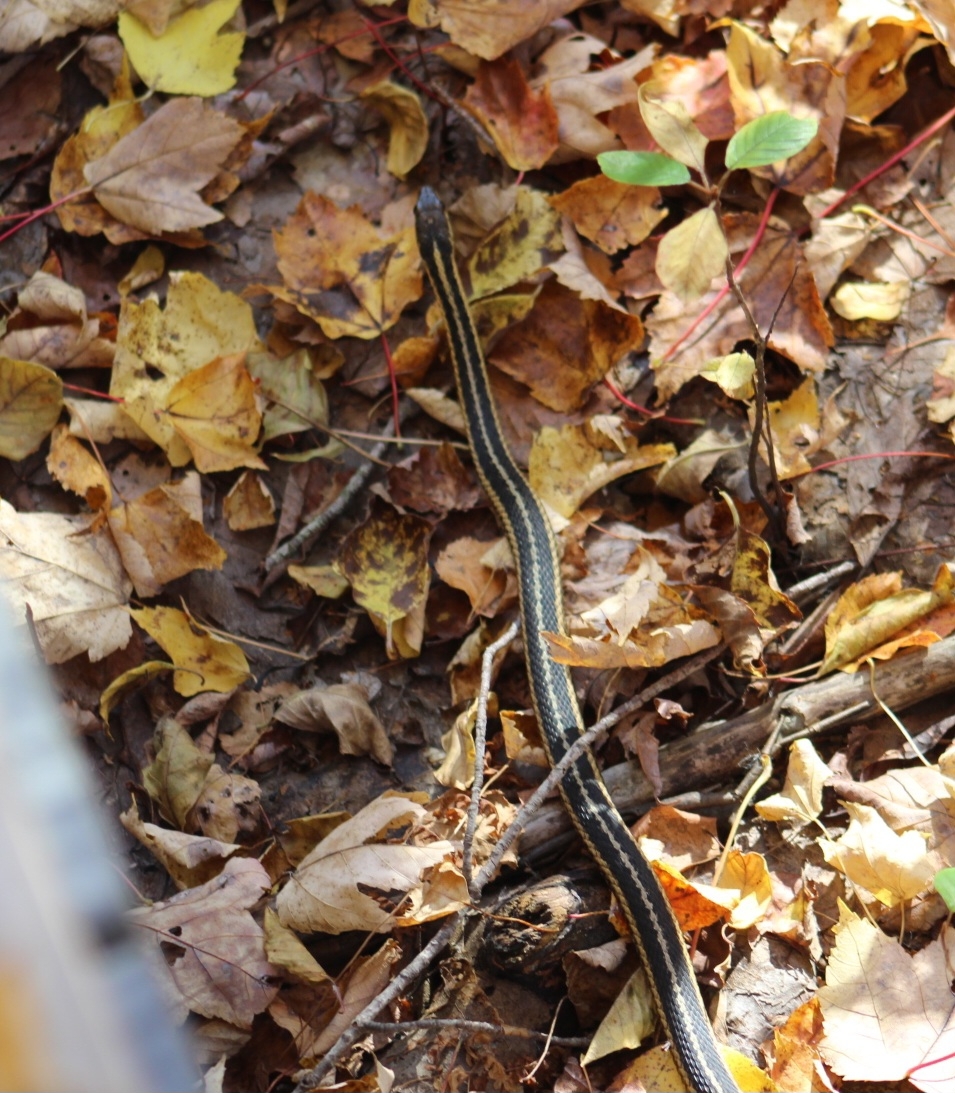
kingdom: Animalia
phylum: Chordata
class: Squamata
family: Colubridae
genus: Thamnophis
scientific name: Thamnophis sirtalis
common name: Common garter snake
